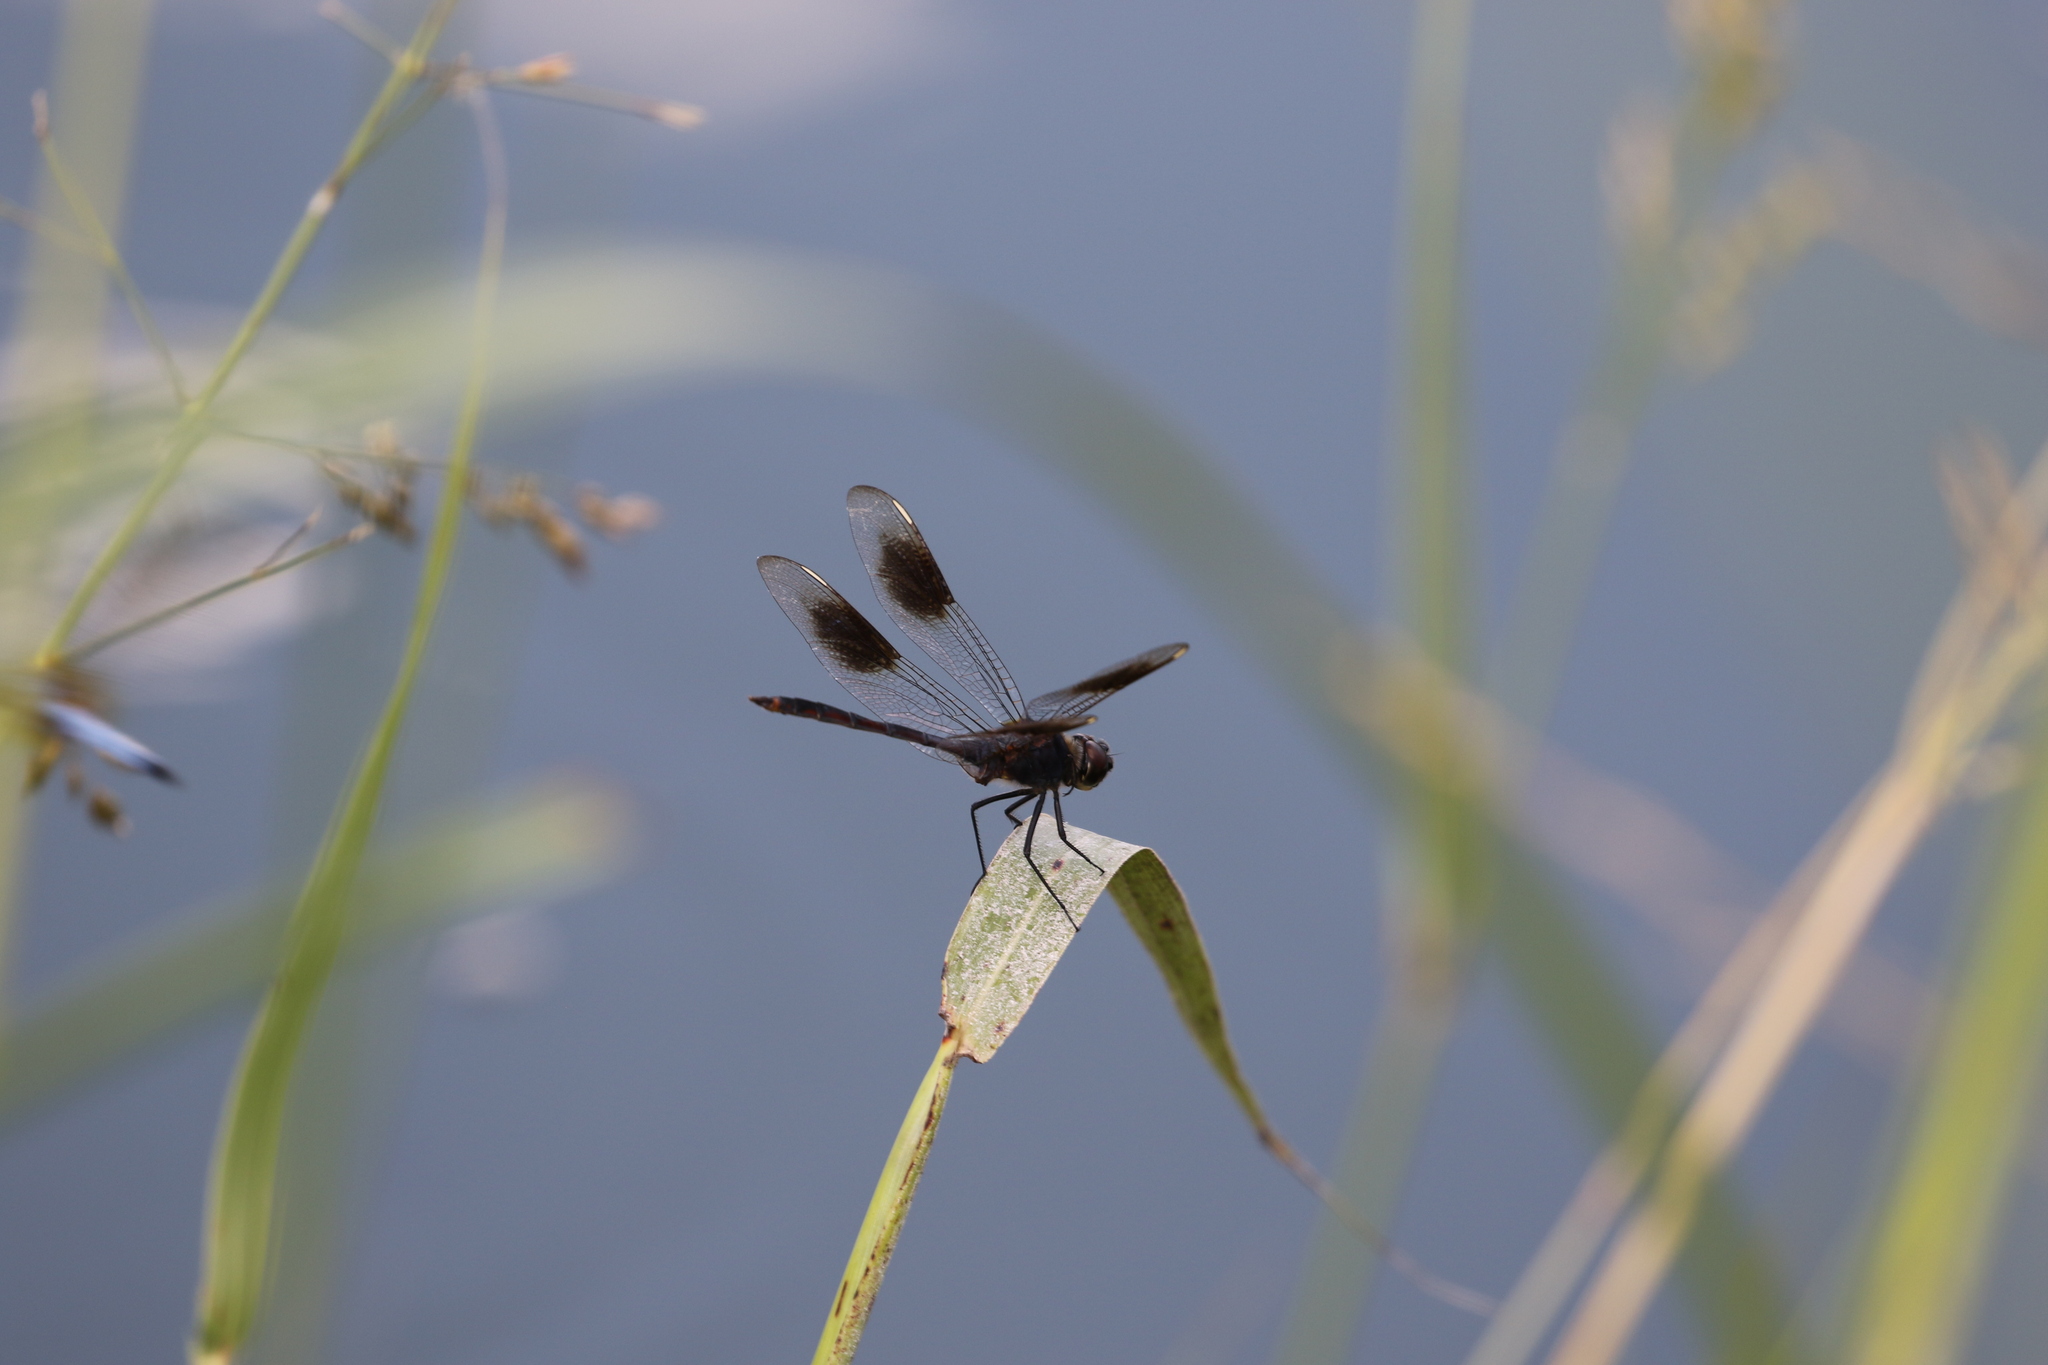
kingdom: Animalia
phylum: Arthropoda
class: Insecta
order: Odonata
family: Libellulidae
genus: Brachymesia
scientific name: Brachymesia gravida
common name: Four-spotted pennant
